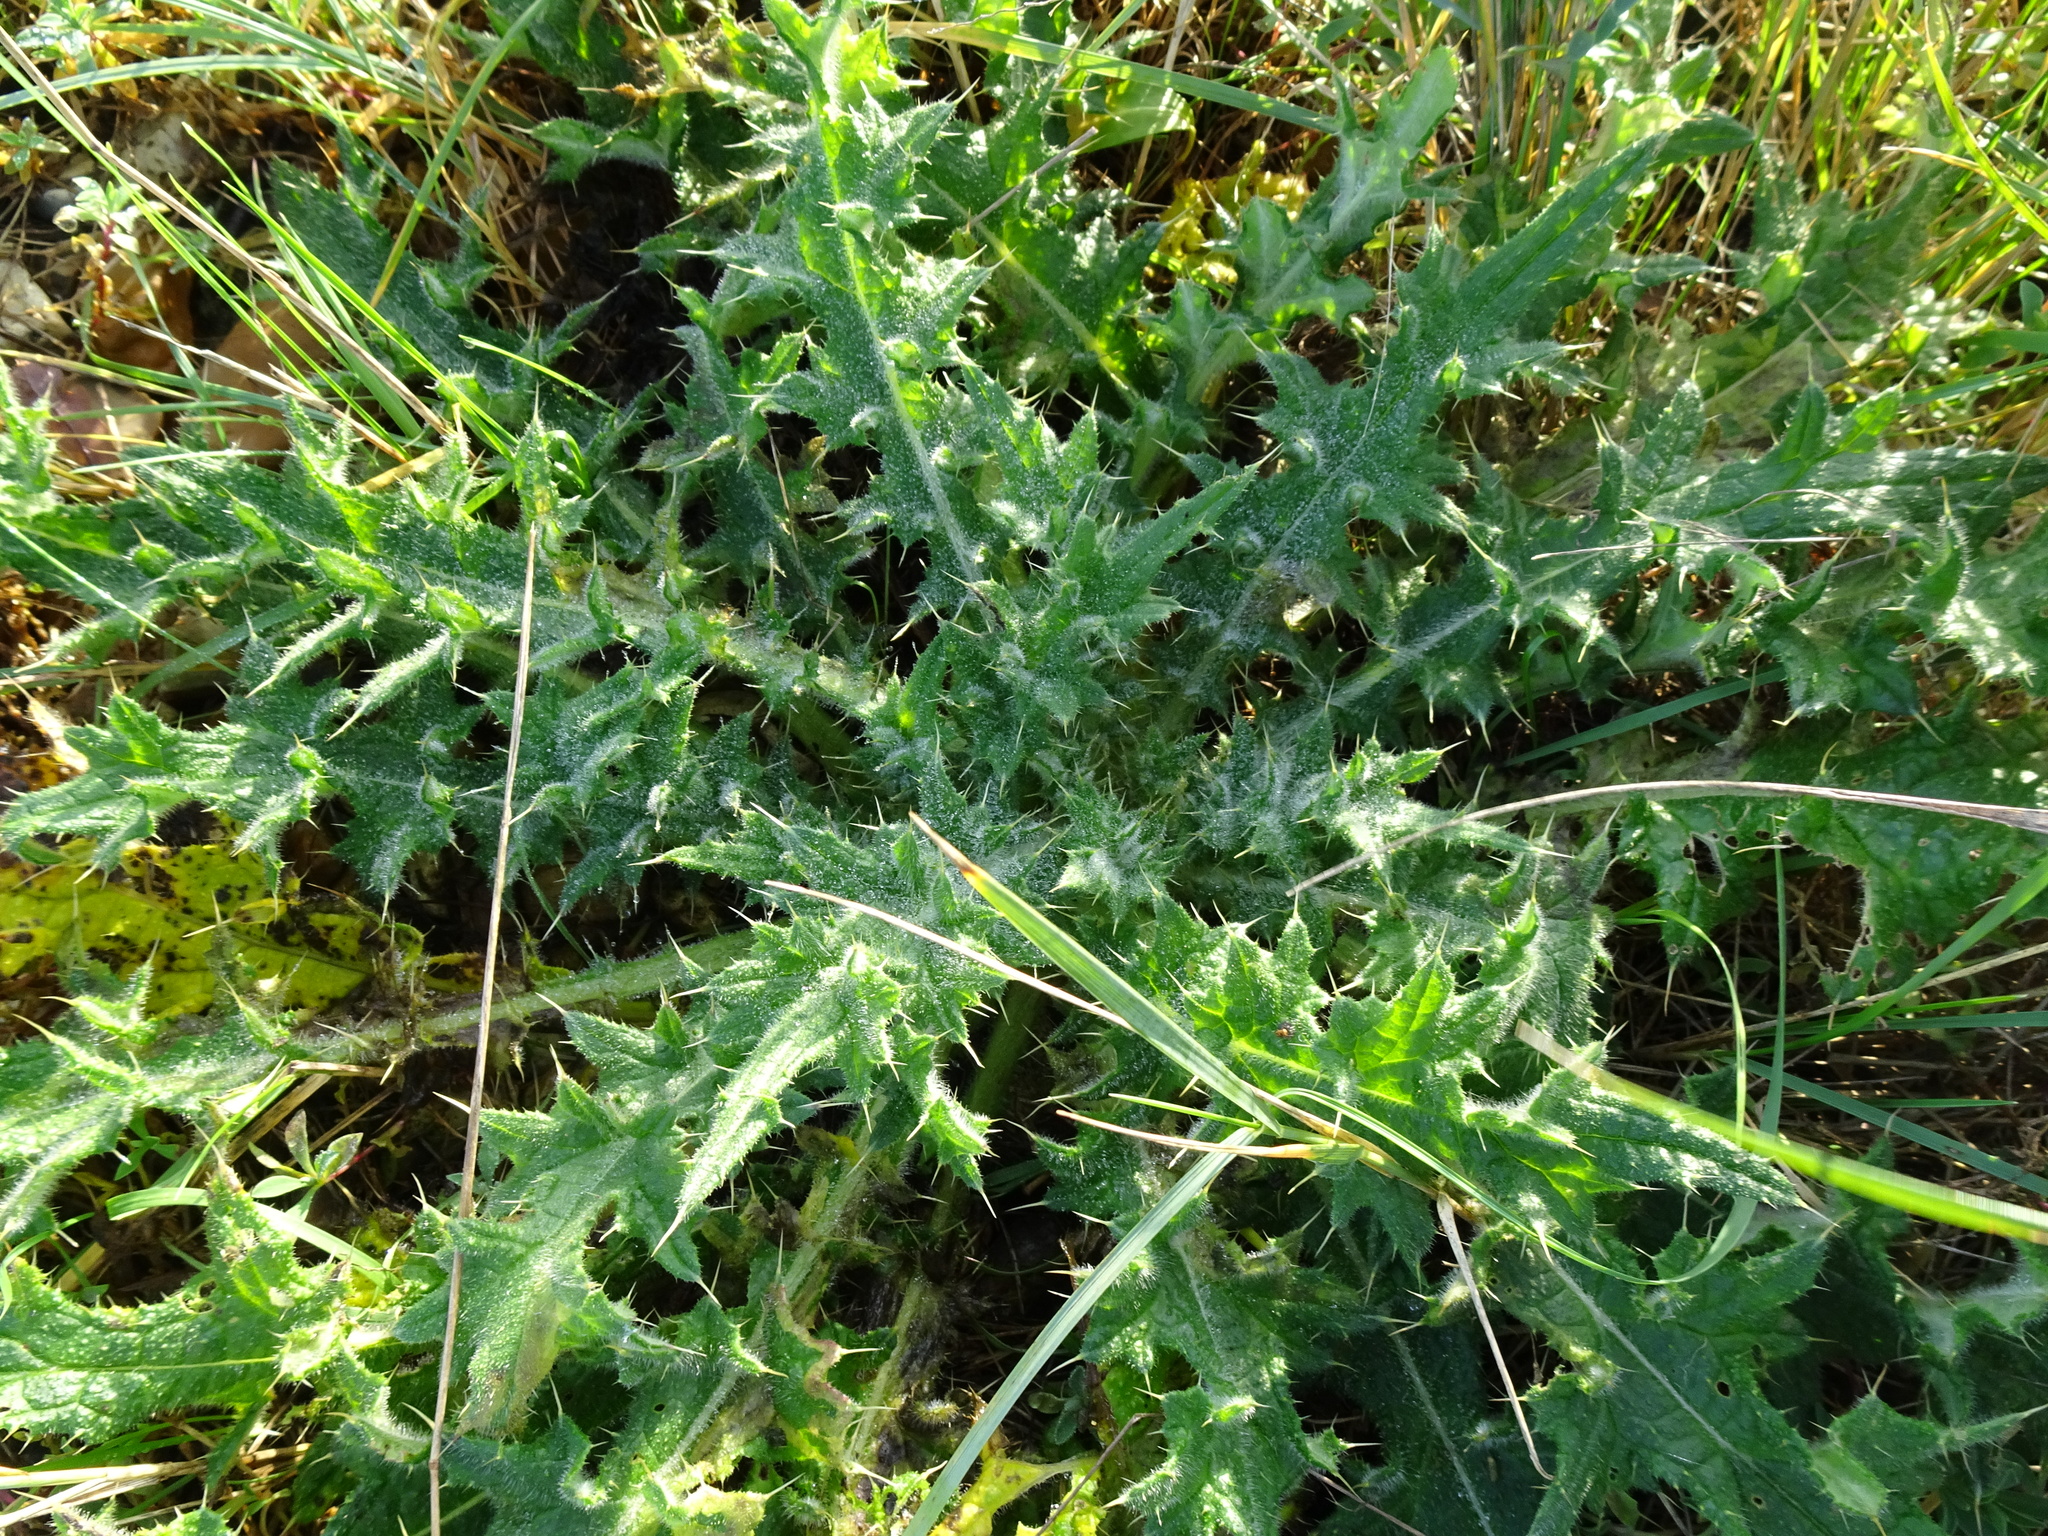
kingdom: Plantae
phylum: Tracheophyta
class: Magnoliopsida
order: Asterales
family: Asteraceae
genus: Cirsium
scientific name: Cirsium vulgare
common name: Bull thistle
